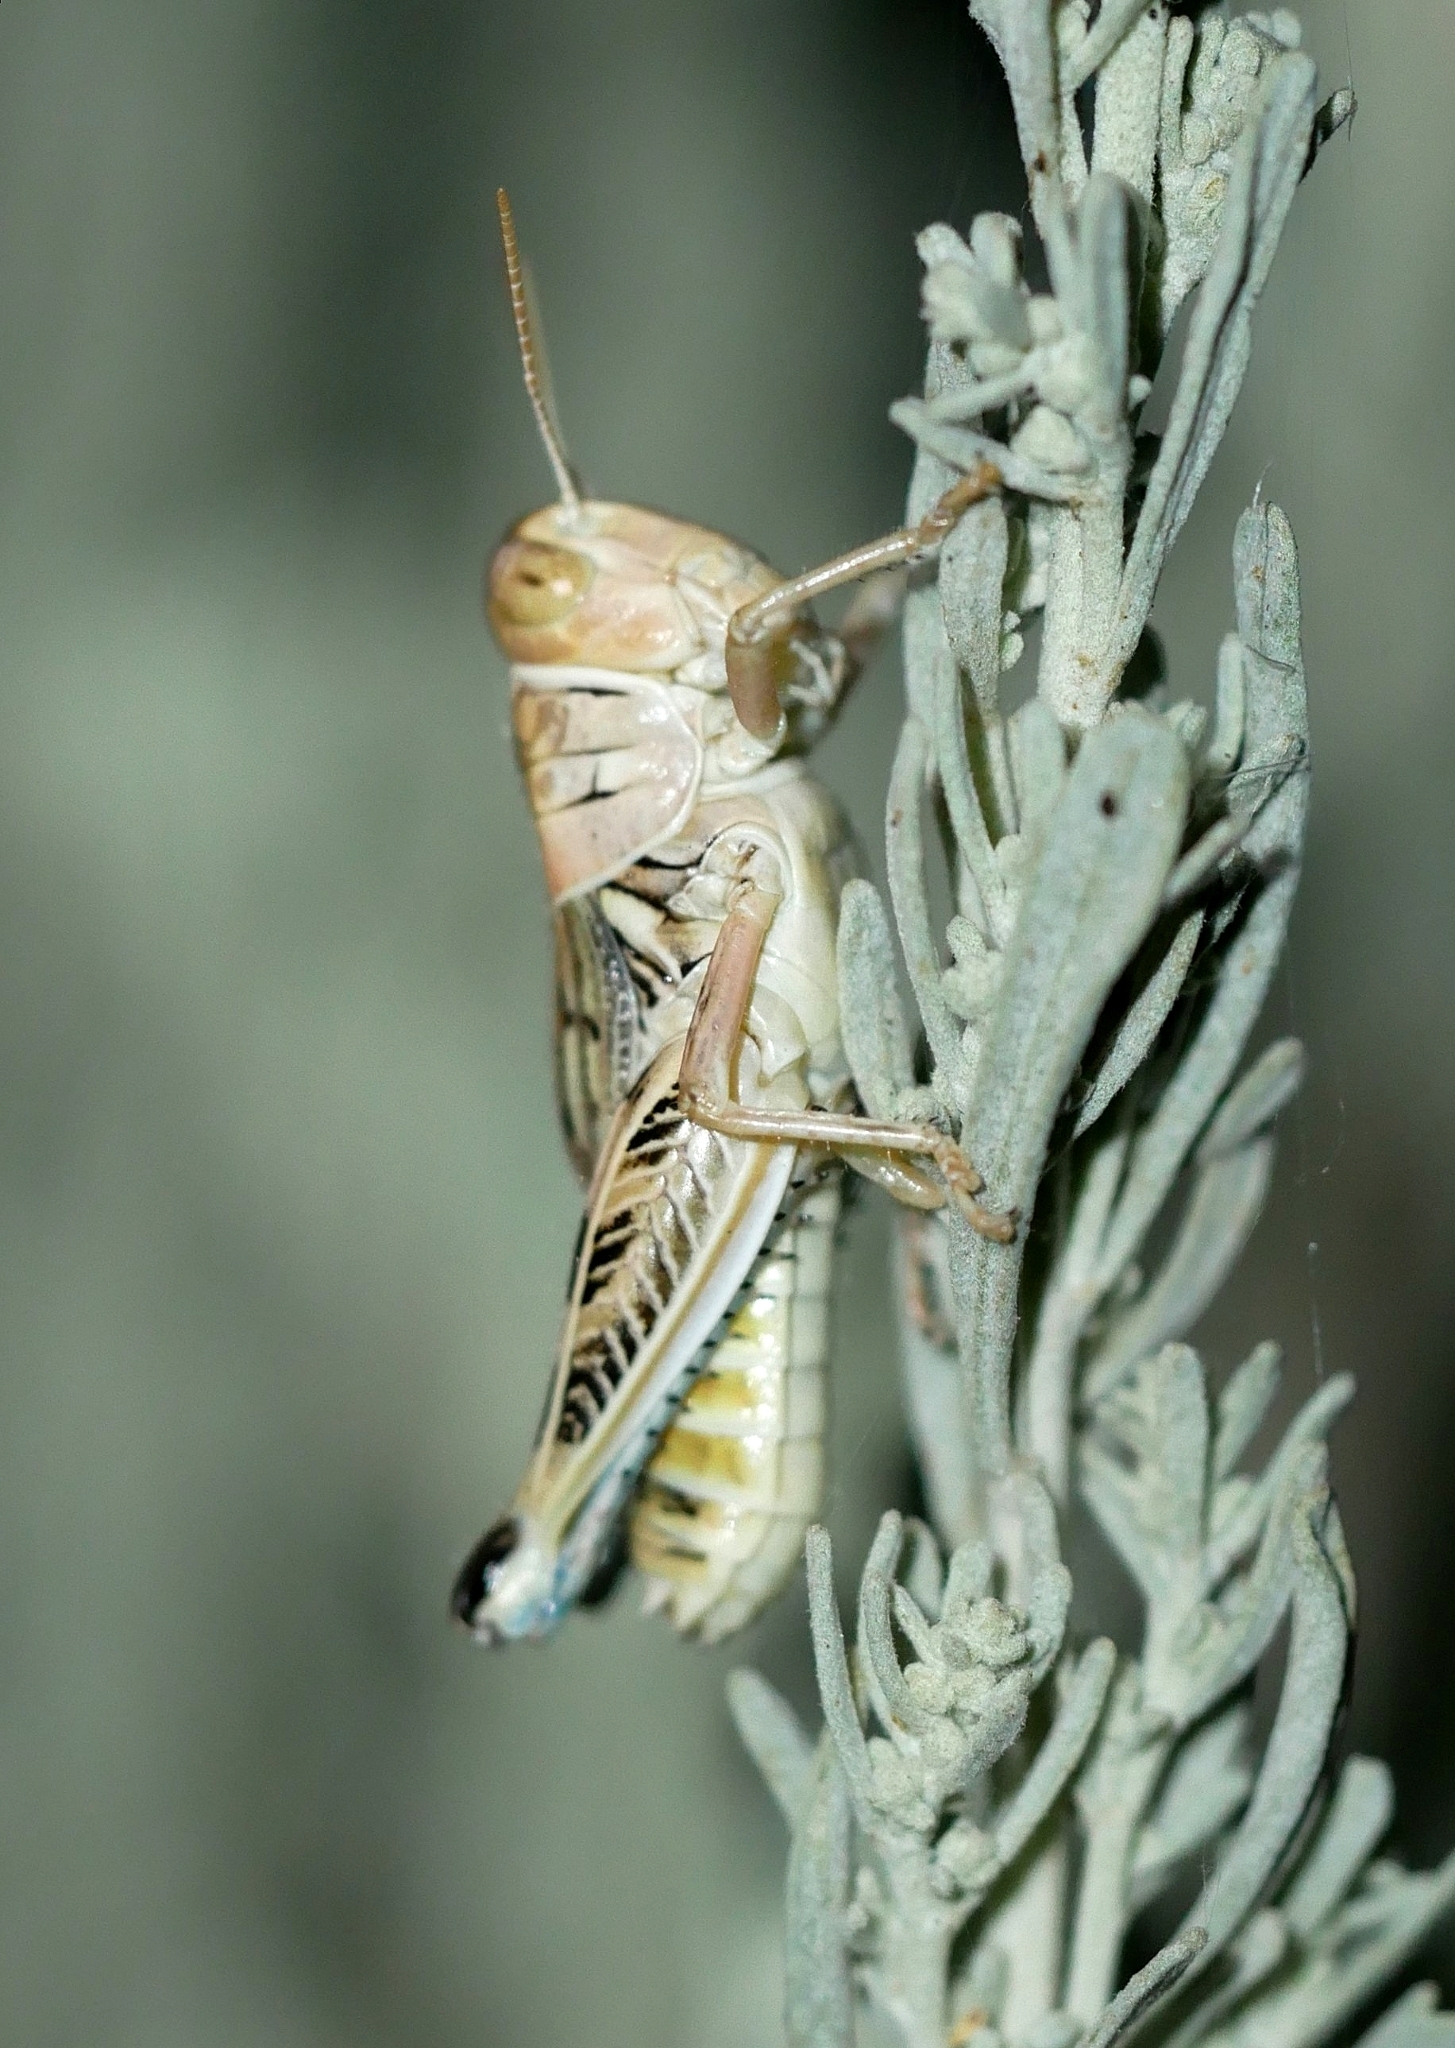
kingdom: Animalia
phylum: Arthropoda
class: Insecta
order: Orthoptera
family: Acrididae
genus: Oedaleonotus
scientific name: Oedaleonotus enigma
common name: Valley grasshopper
